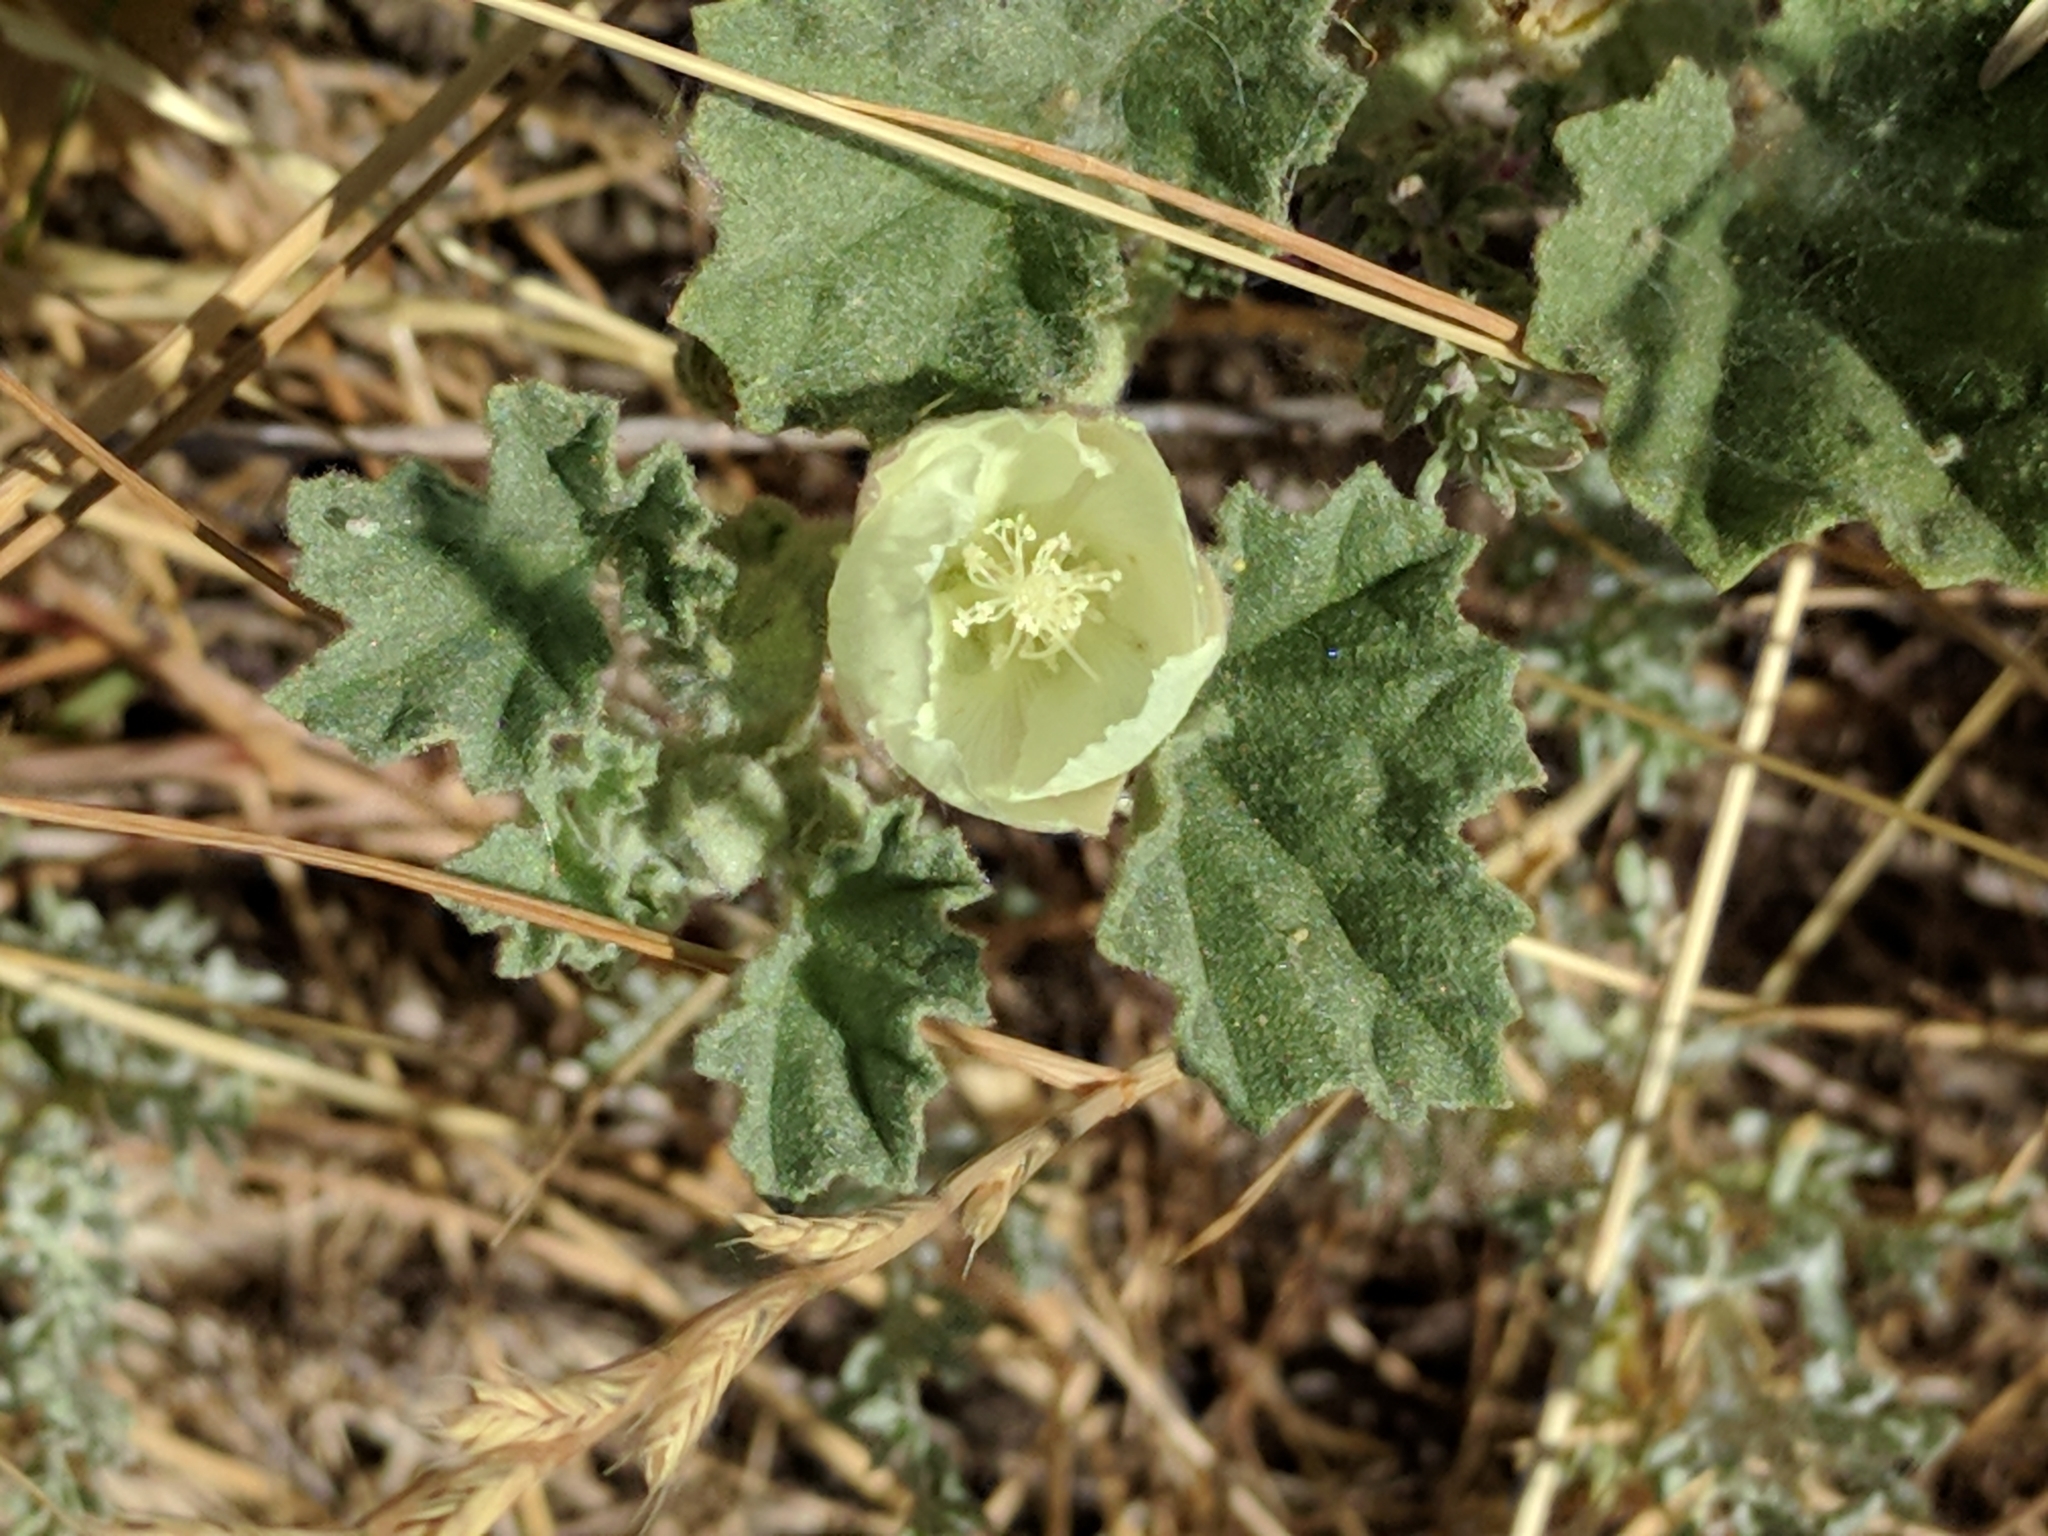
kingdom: Plantae
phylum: Tracheophyta
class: Magnoliopsida
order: Malvales
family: Malvaceae
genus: Malvella
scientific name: Malvella leprosa
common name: Alkali-mallow
